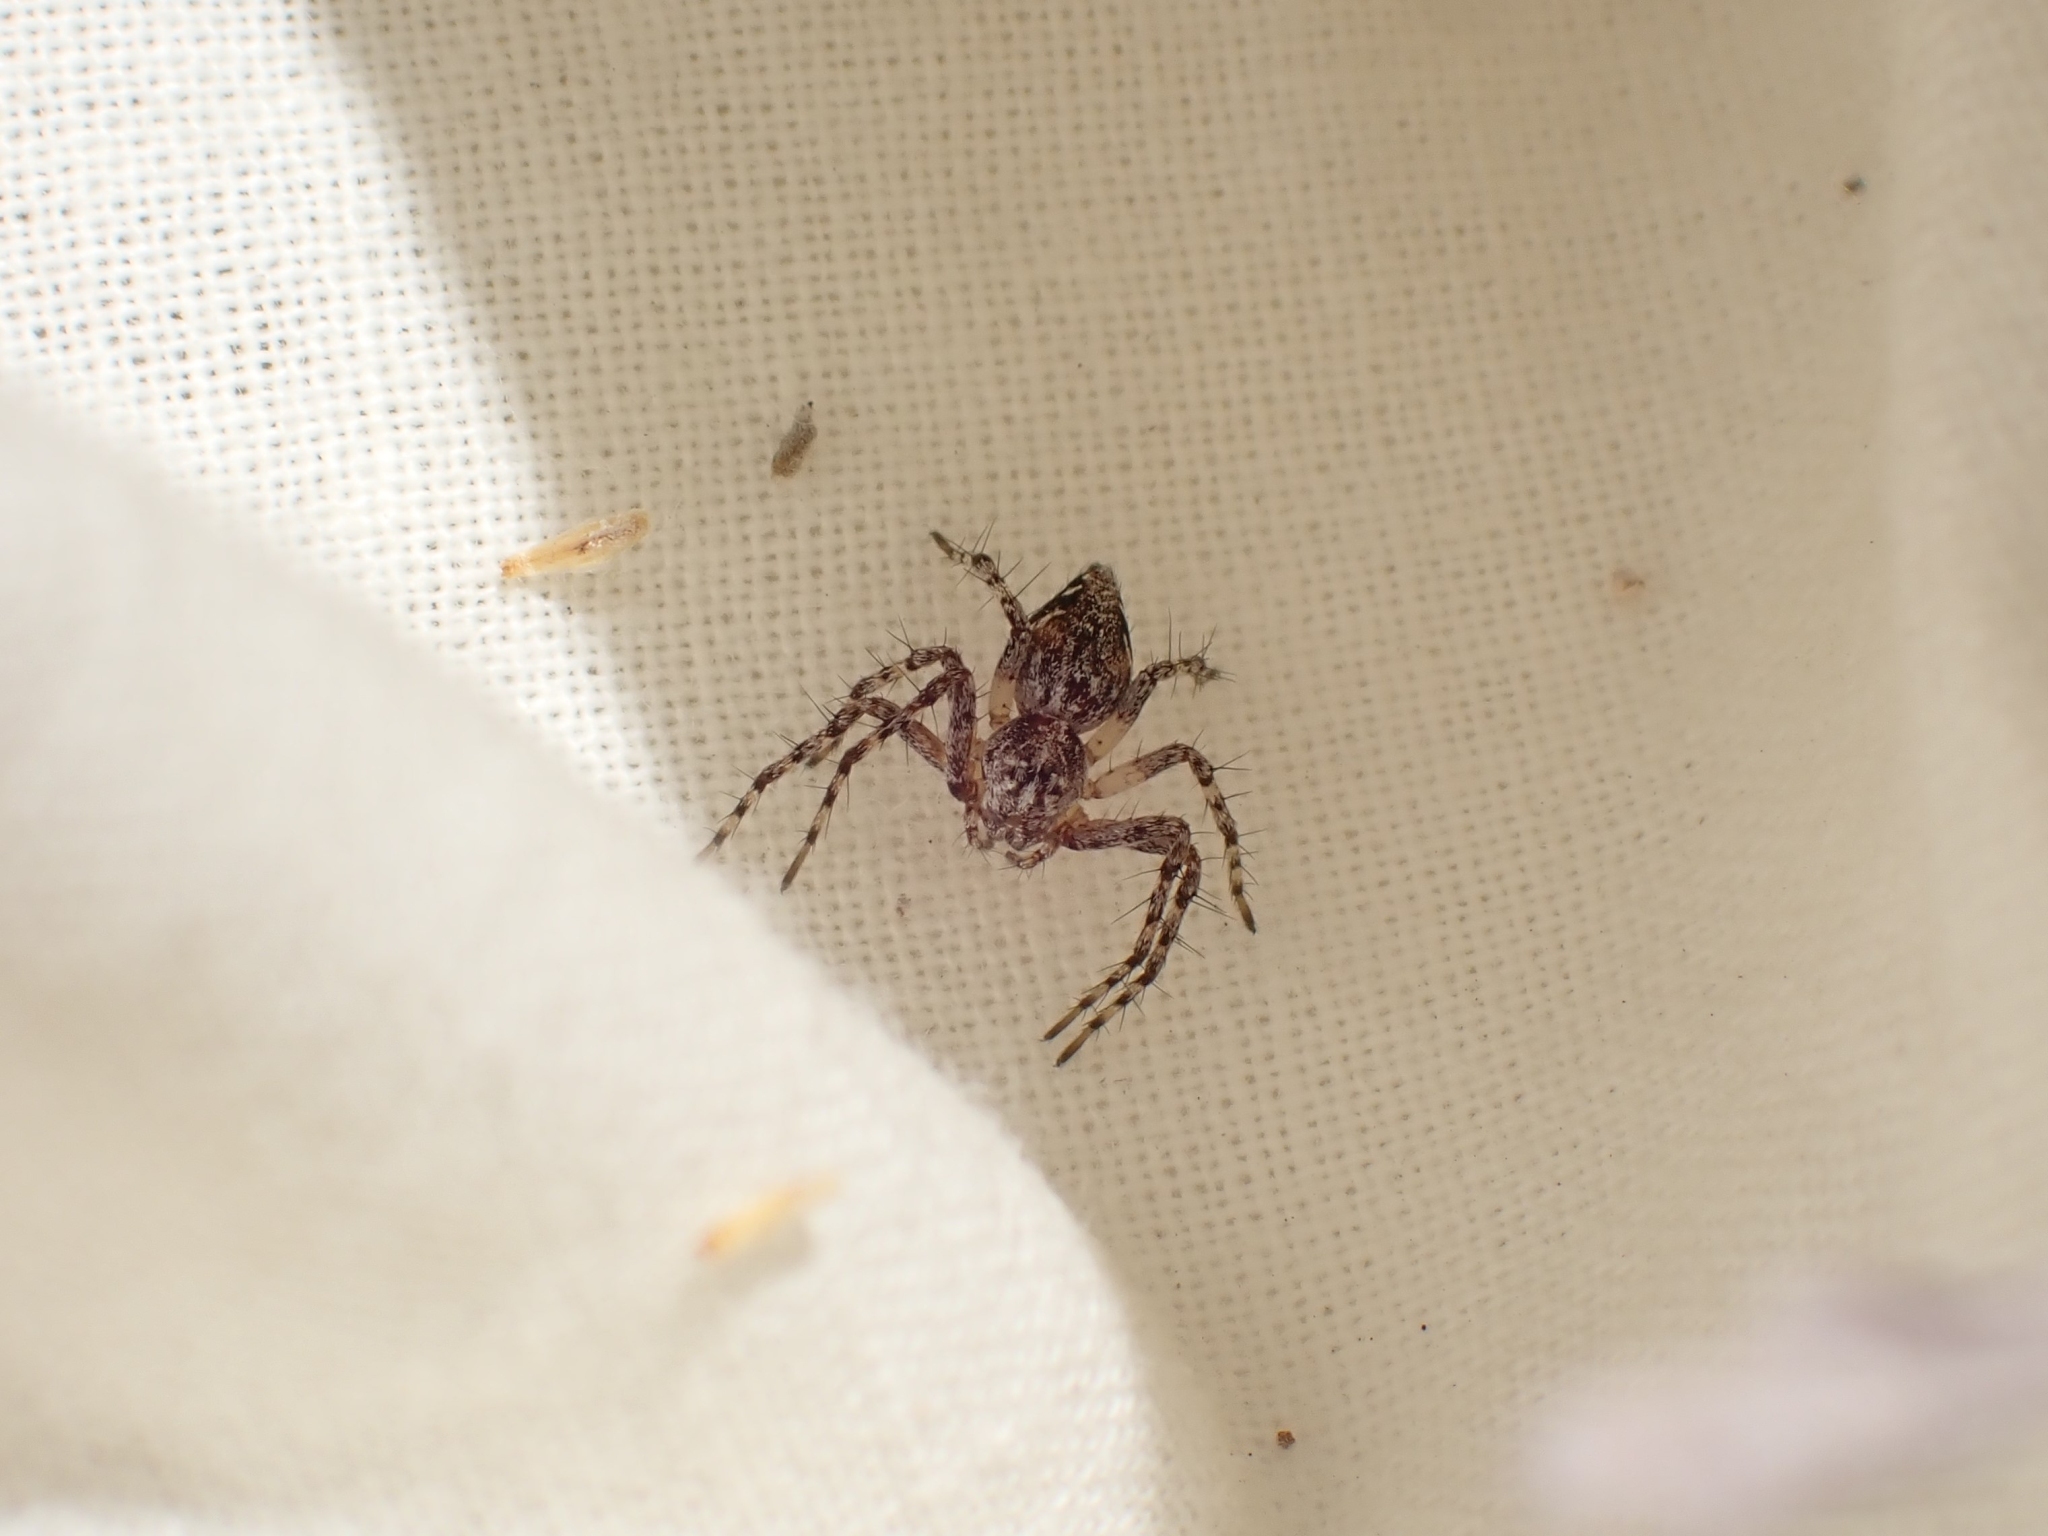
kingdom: Animalia
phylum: Arthropoda
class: Arachnida
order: Araneae
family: Oxyopidae
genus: Oxyopes
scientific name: Oxyopes scalaris
